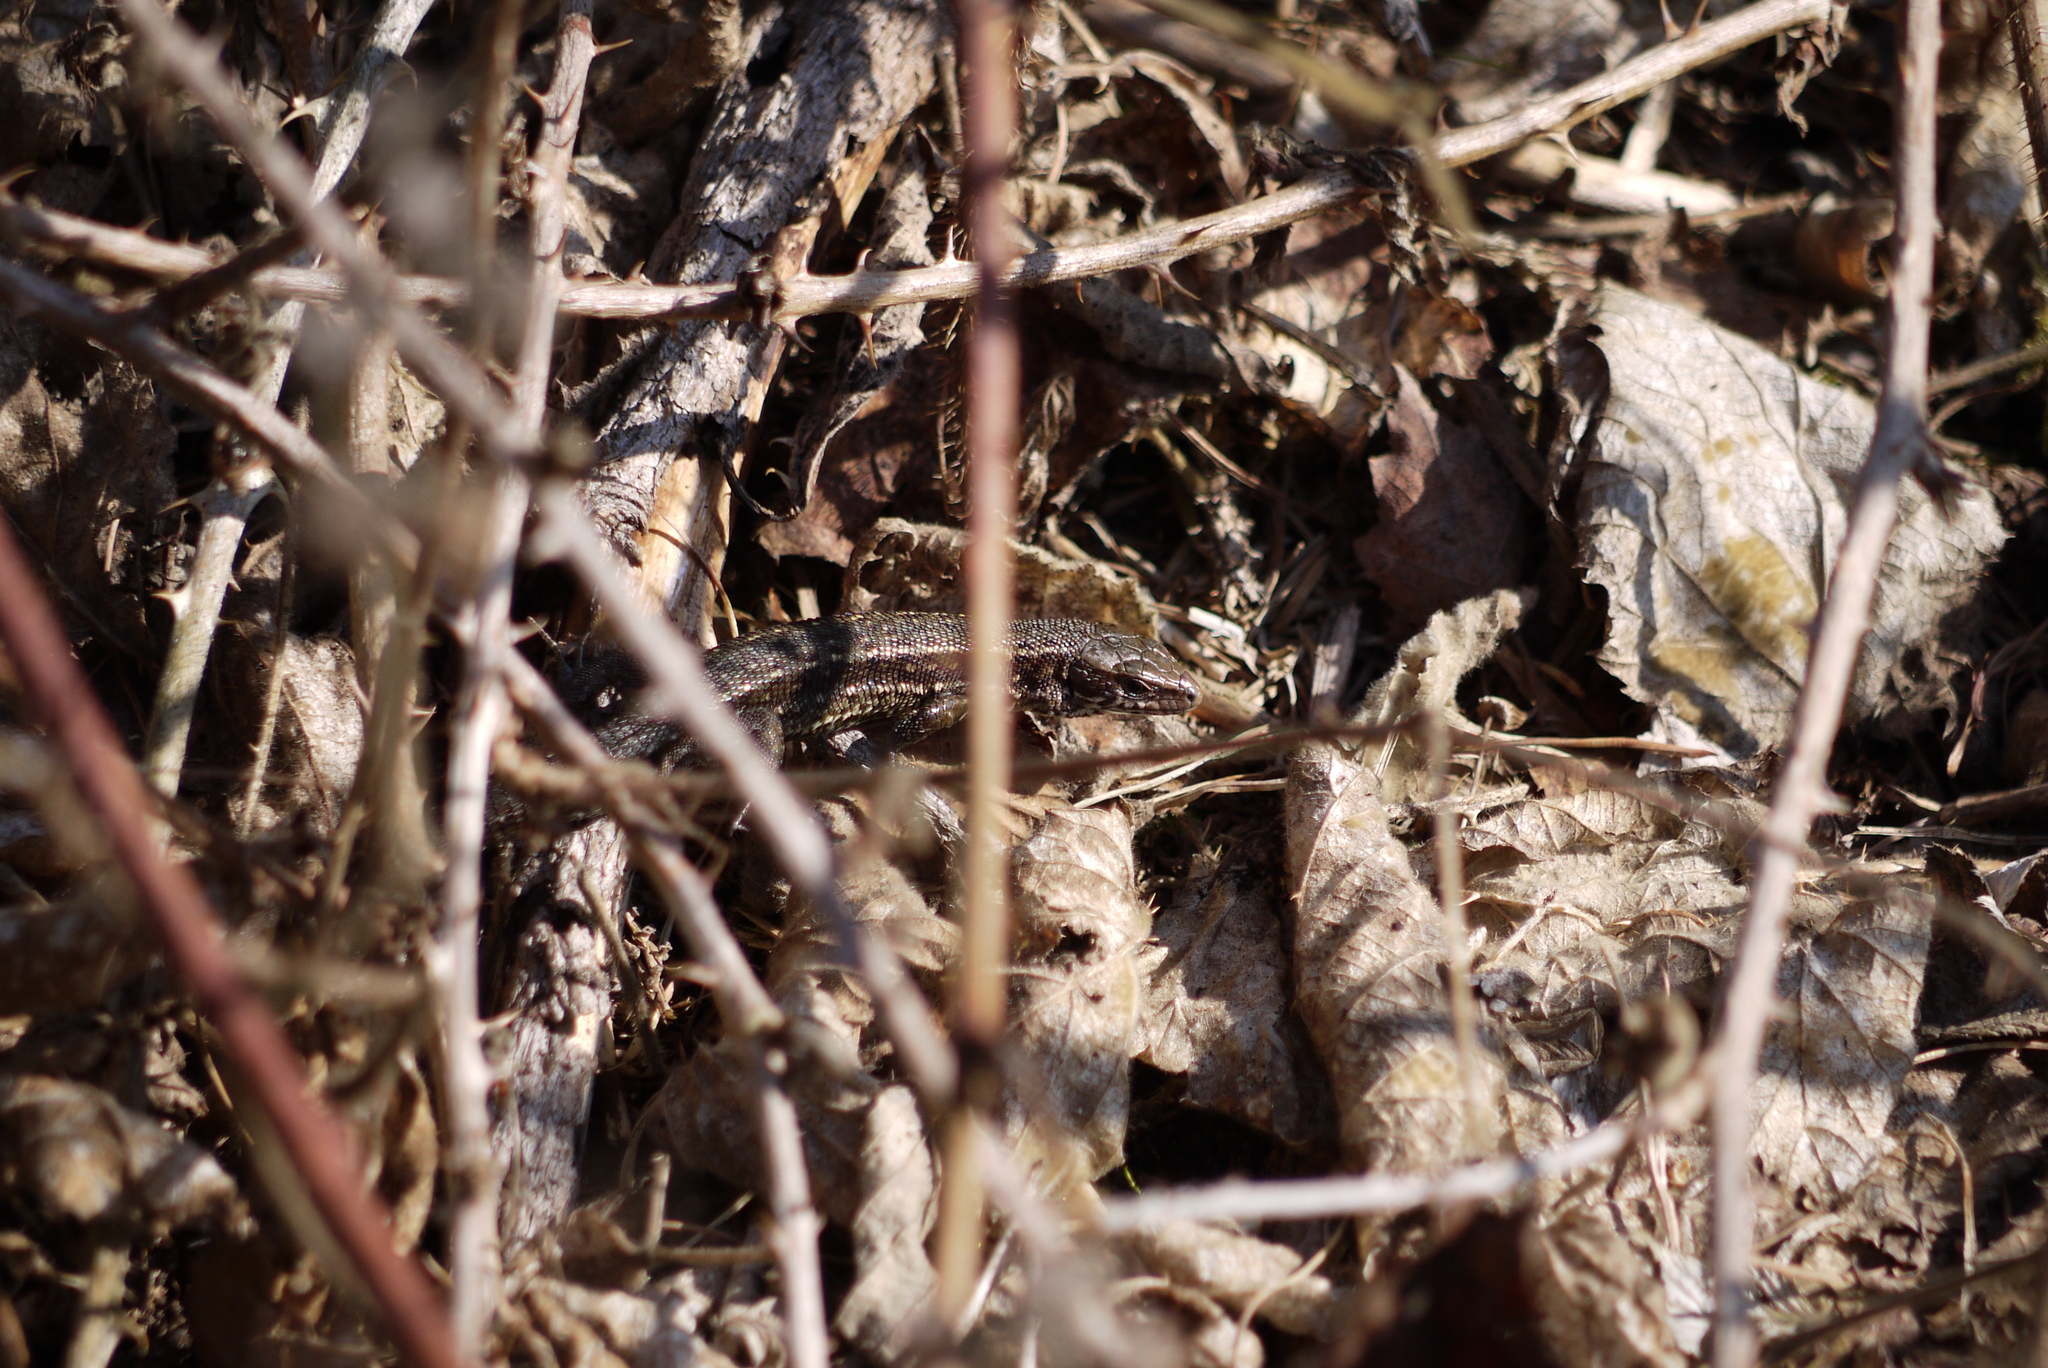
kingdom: Animalia
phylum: Chordata
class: Squamata
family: Lacertidae
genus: Zootoca
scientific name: Zootoca vivipara
